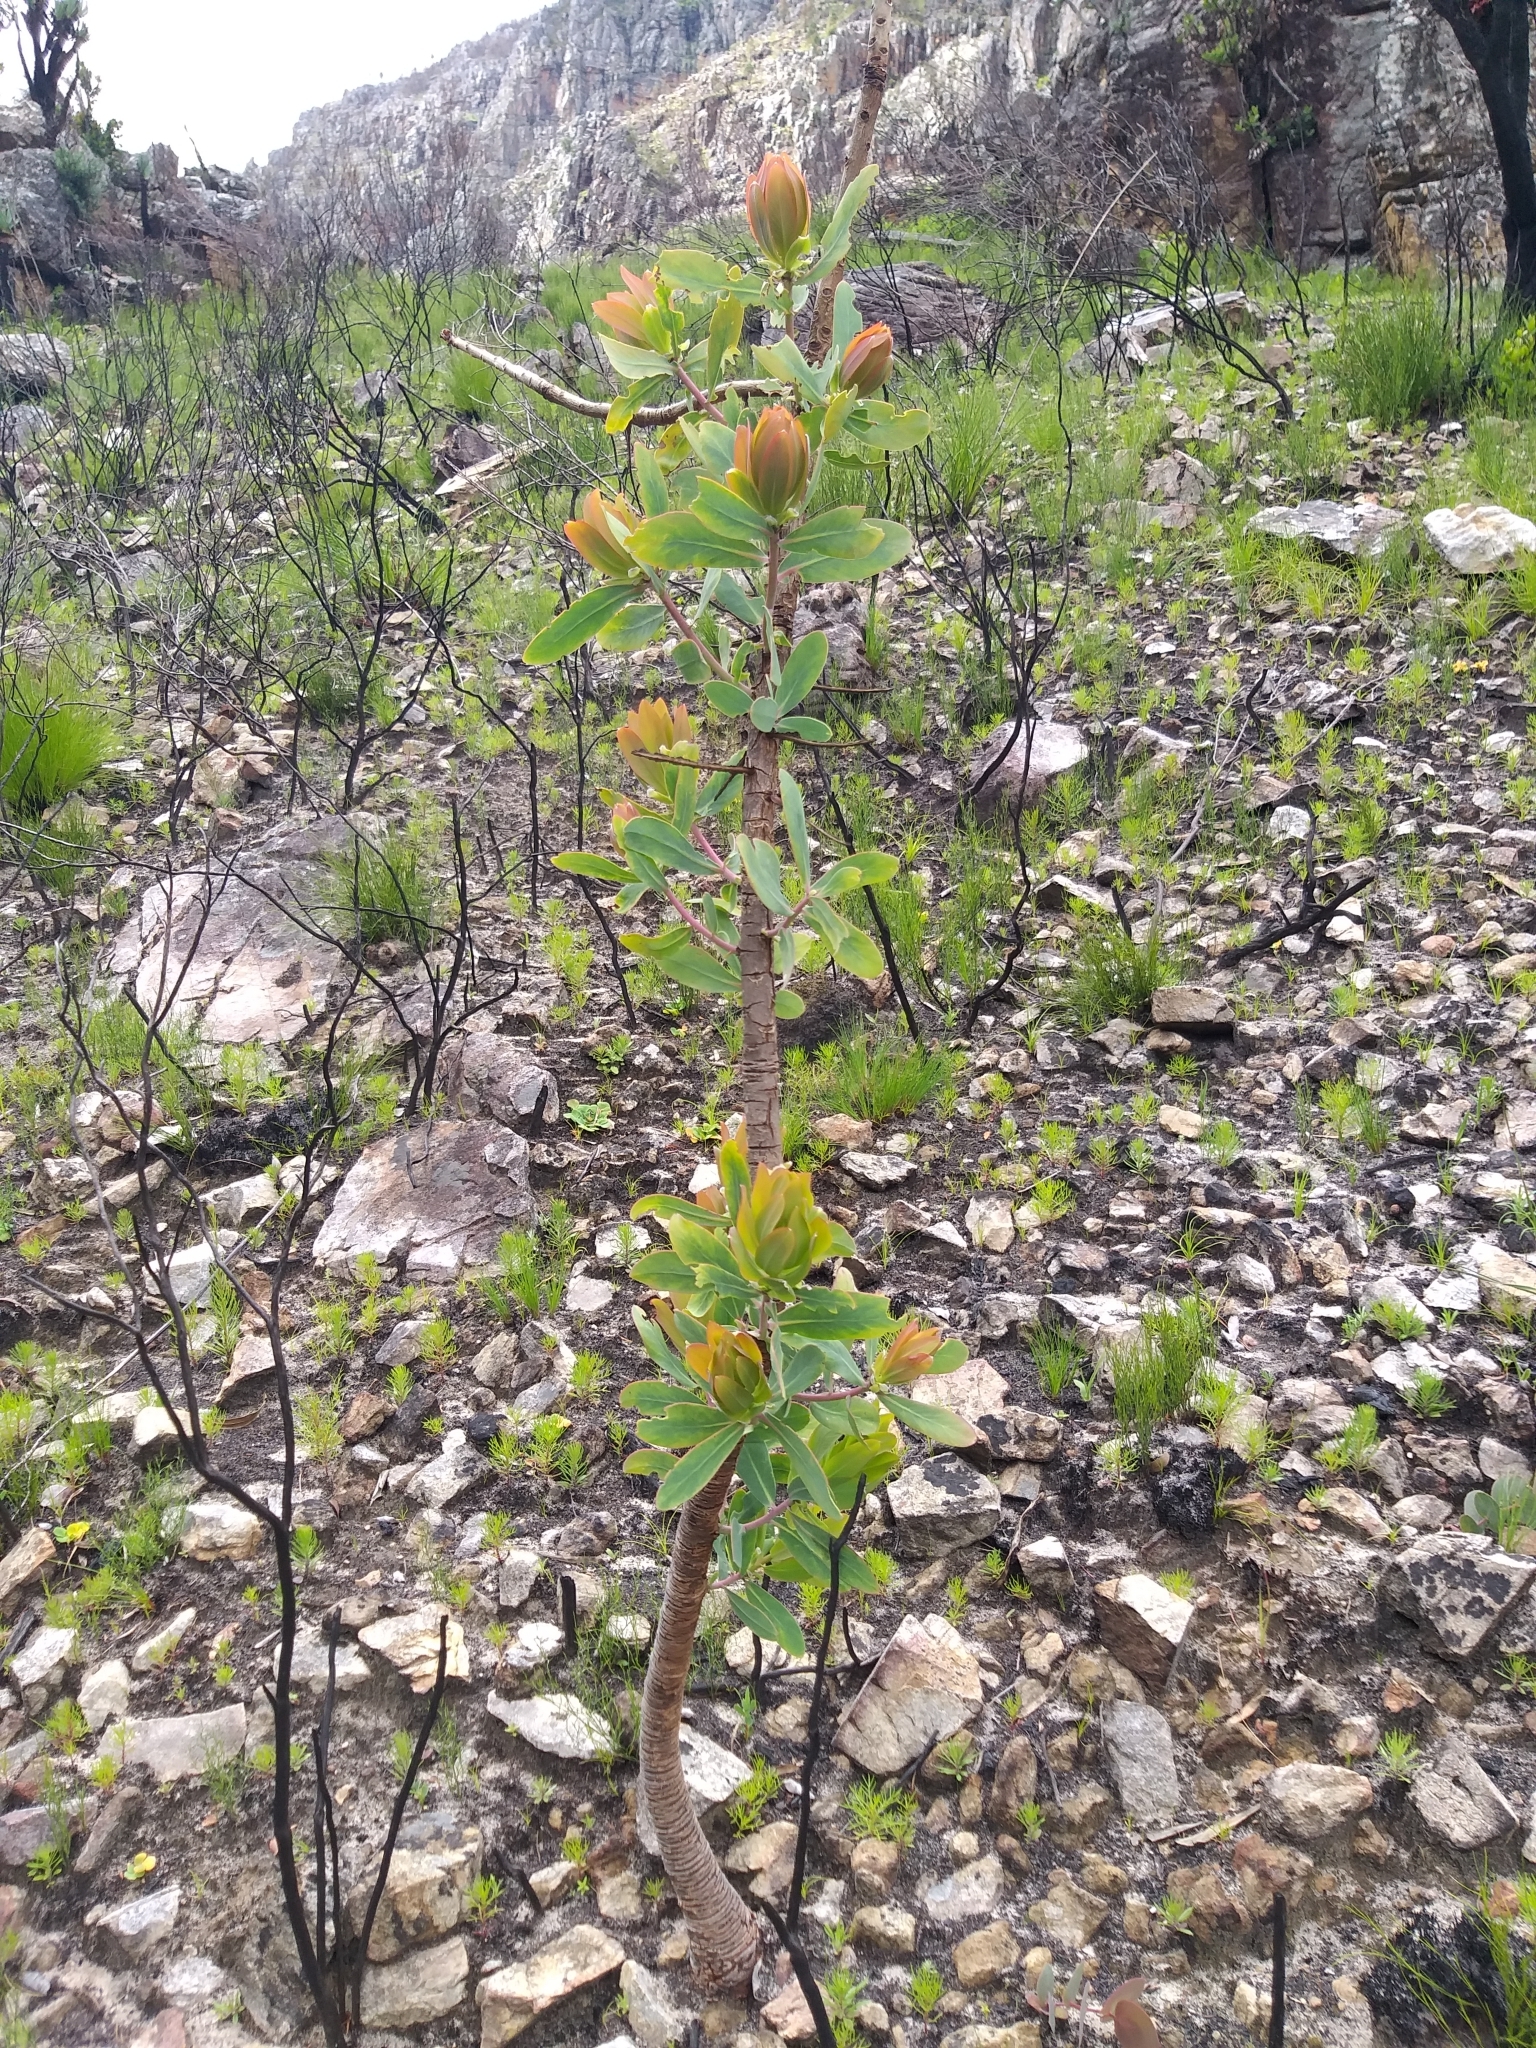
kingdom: Plantae
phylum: Tracheophyta
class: Magnoliopsida
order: Proteales
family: Proteaceae
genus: Protea
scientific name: Protea nitida
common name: Tree protea
